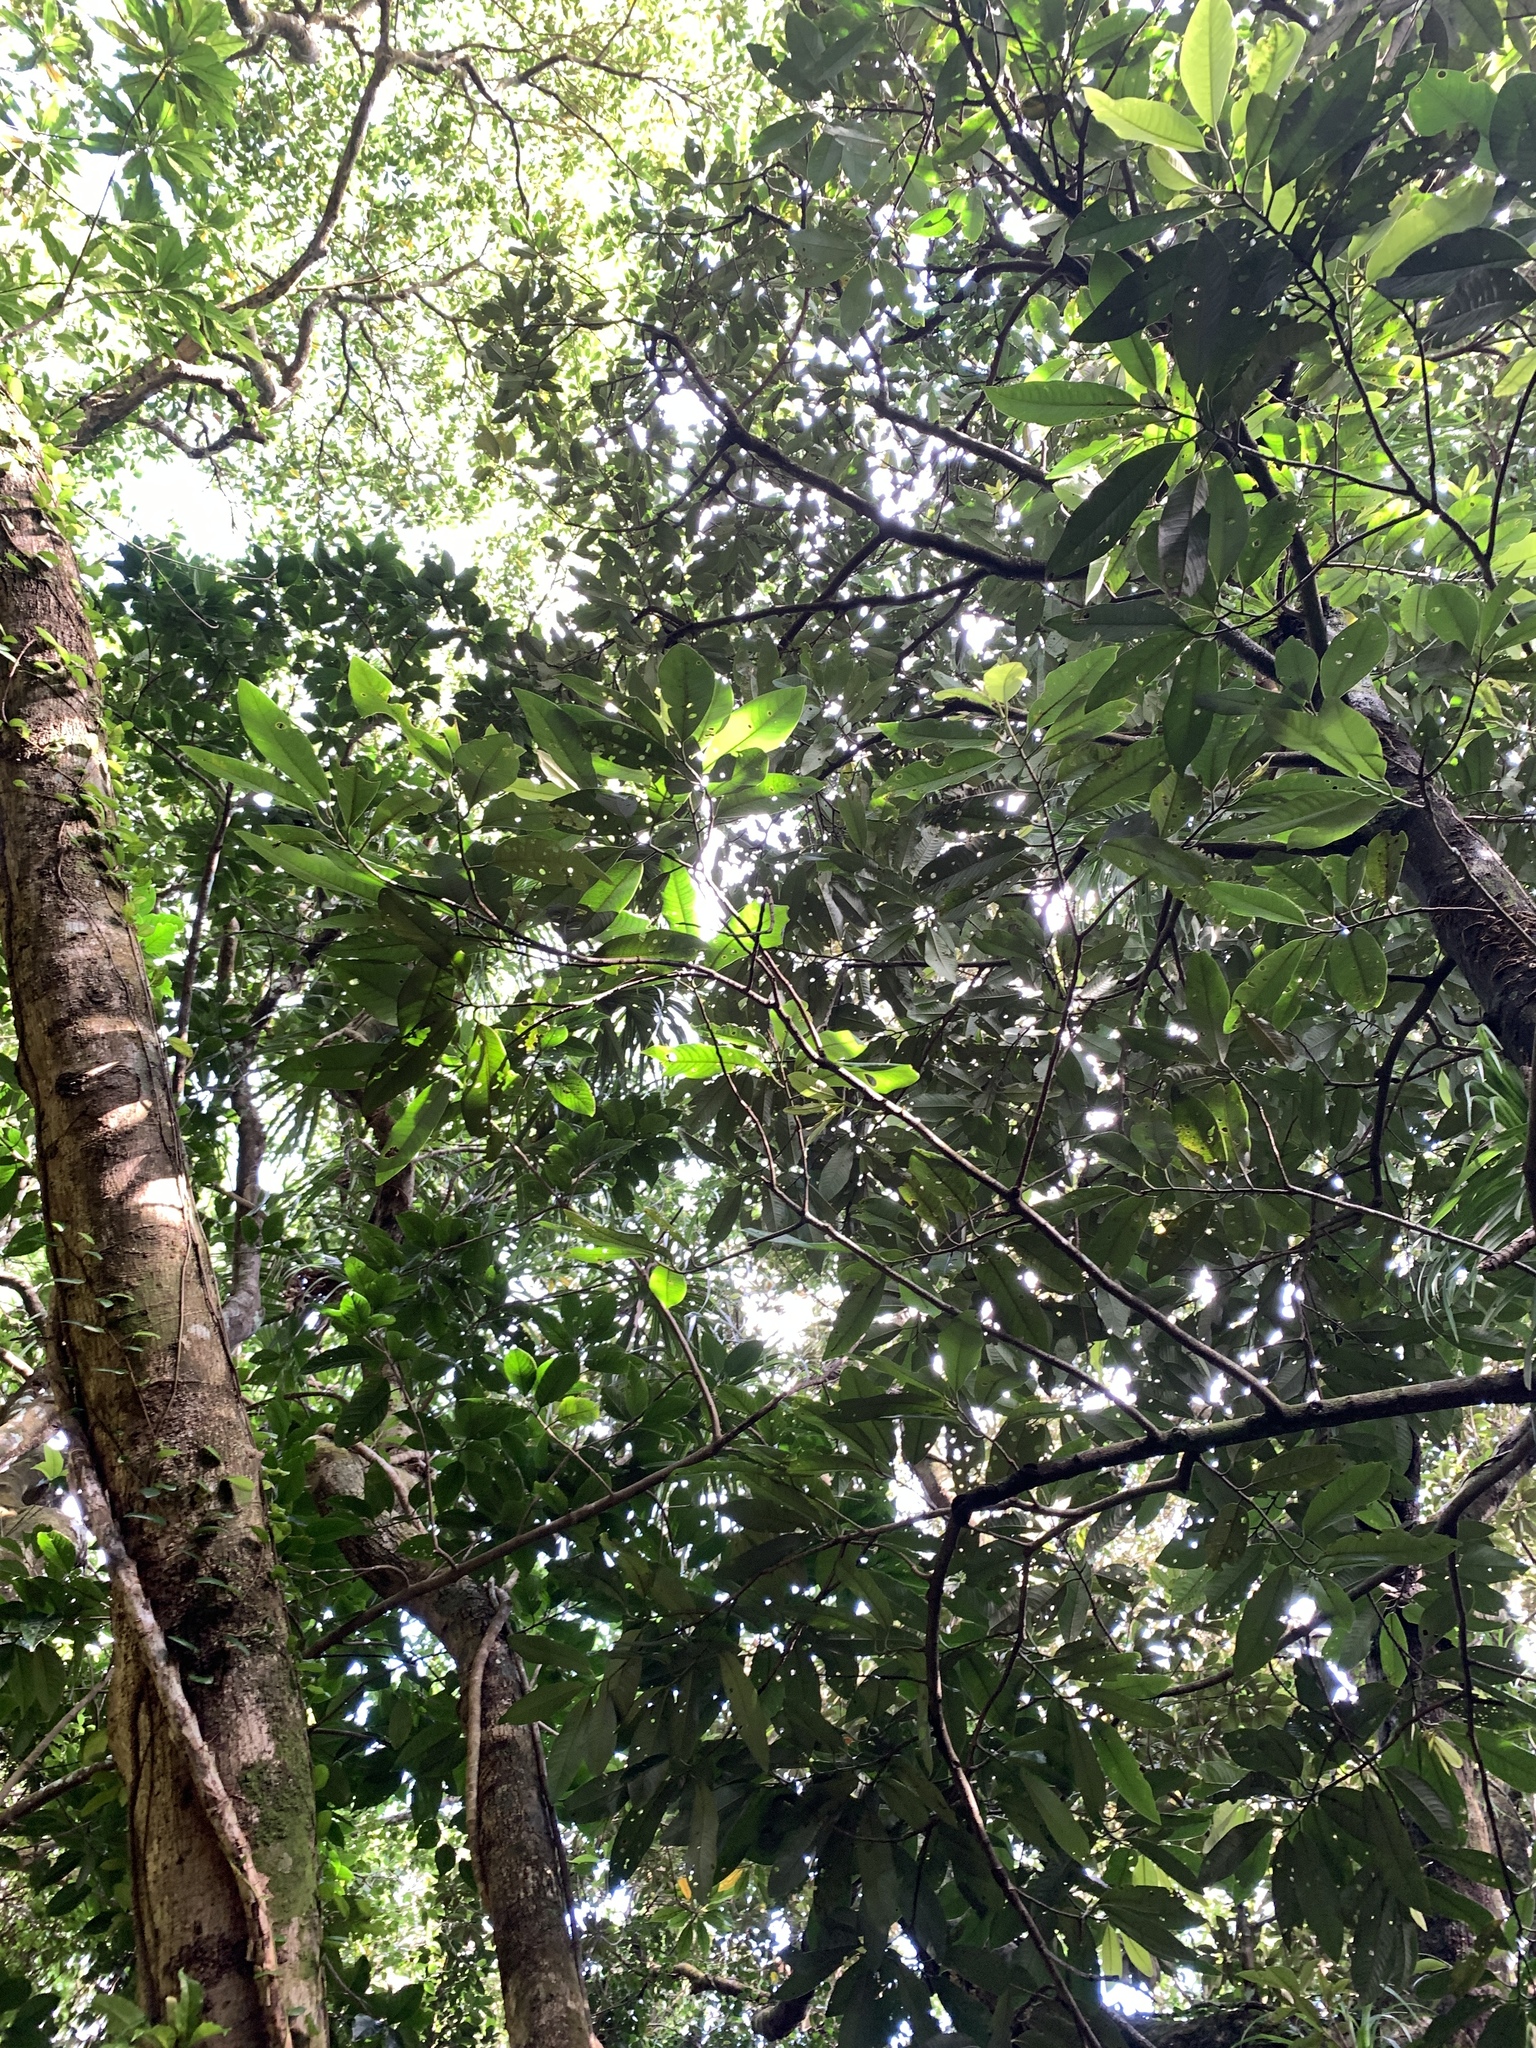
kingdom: Plantae
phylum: Tracheophyta
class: Magnoliopsida
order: Magnoliales
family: Myristicaceae
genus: Myristica
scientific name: Myristica ceylanica
